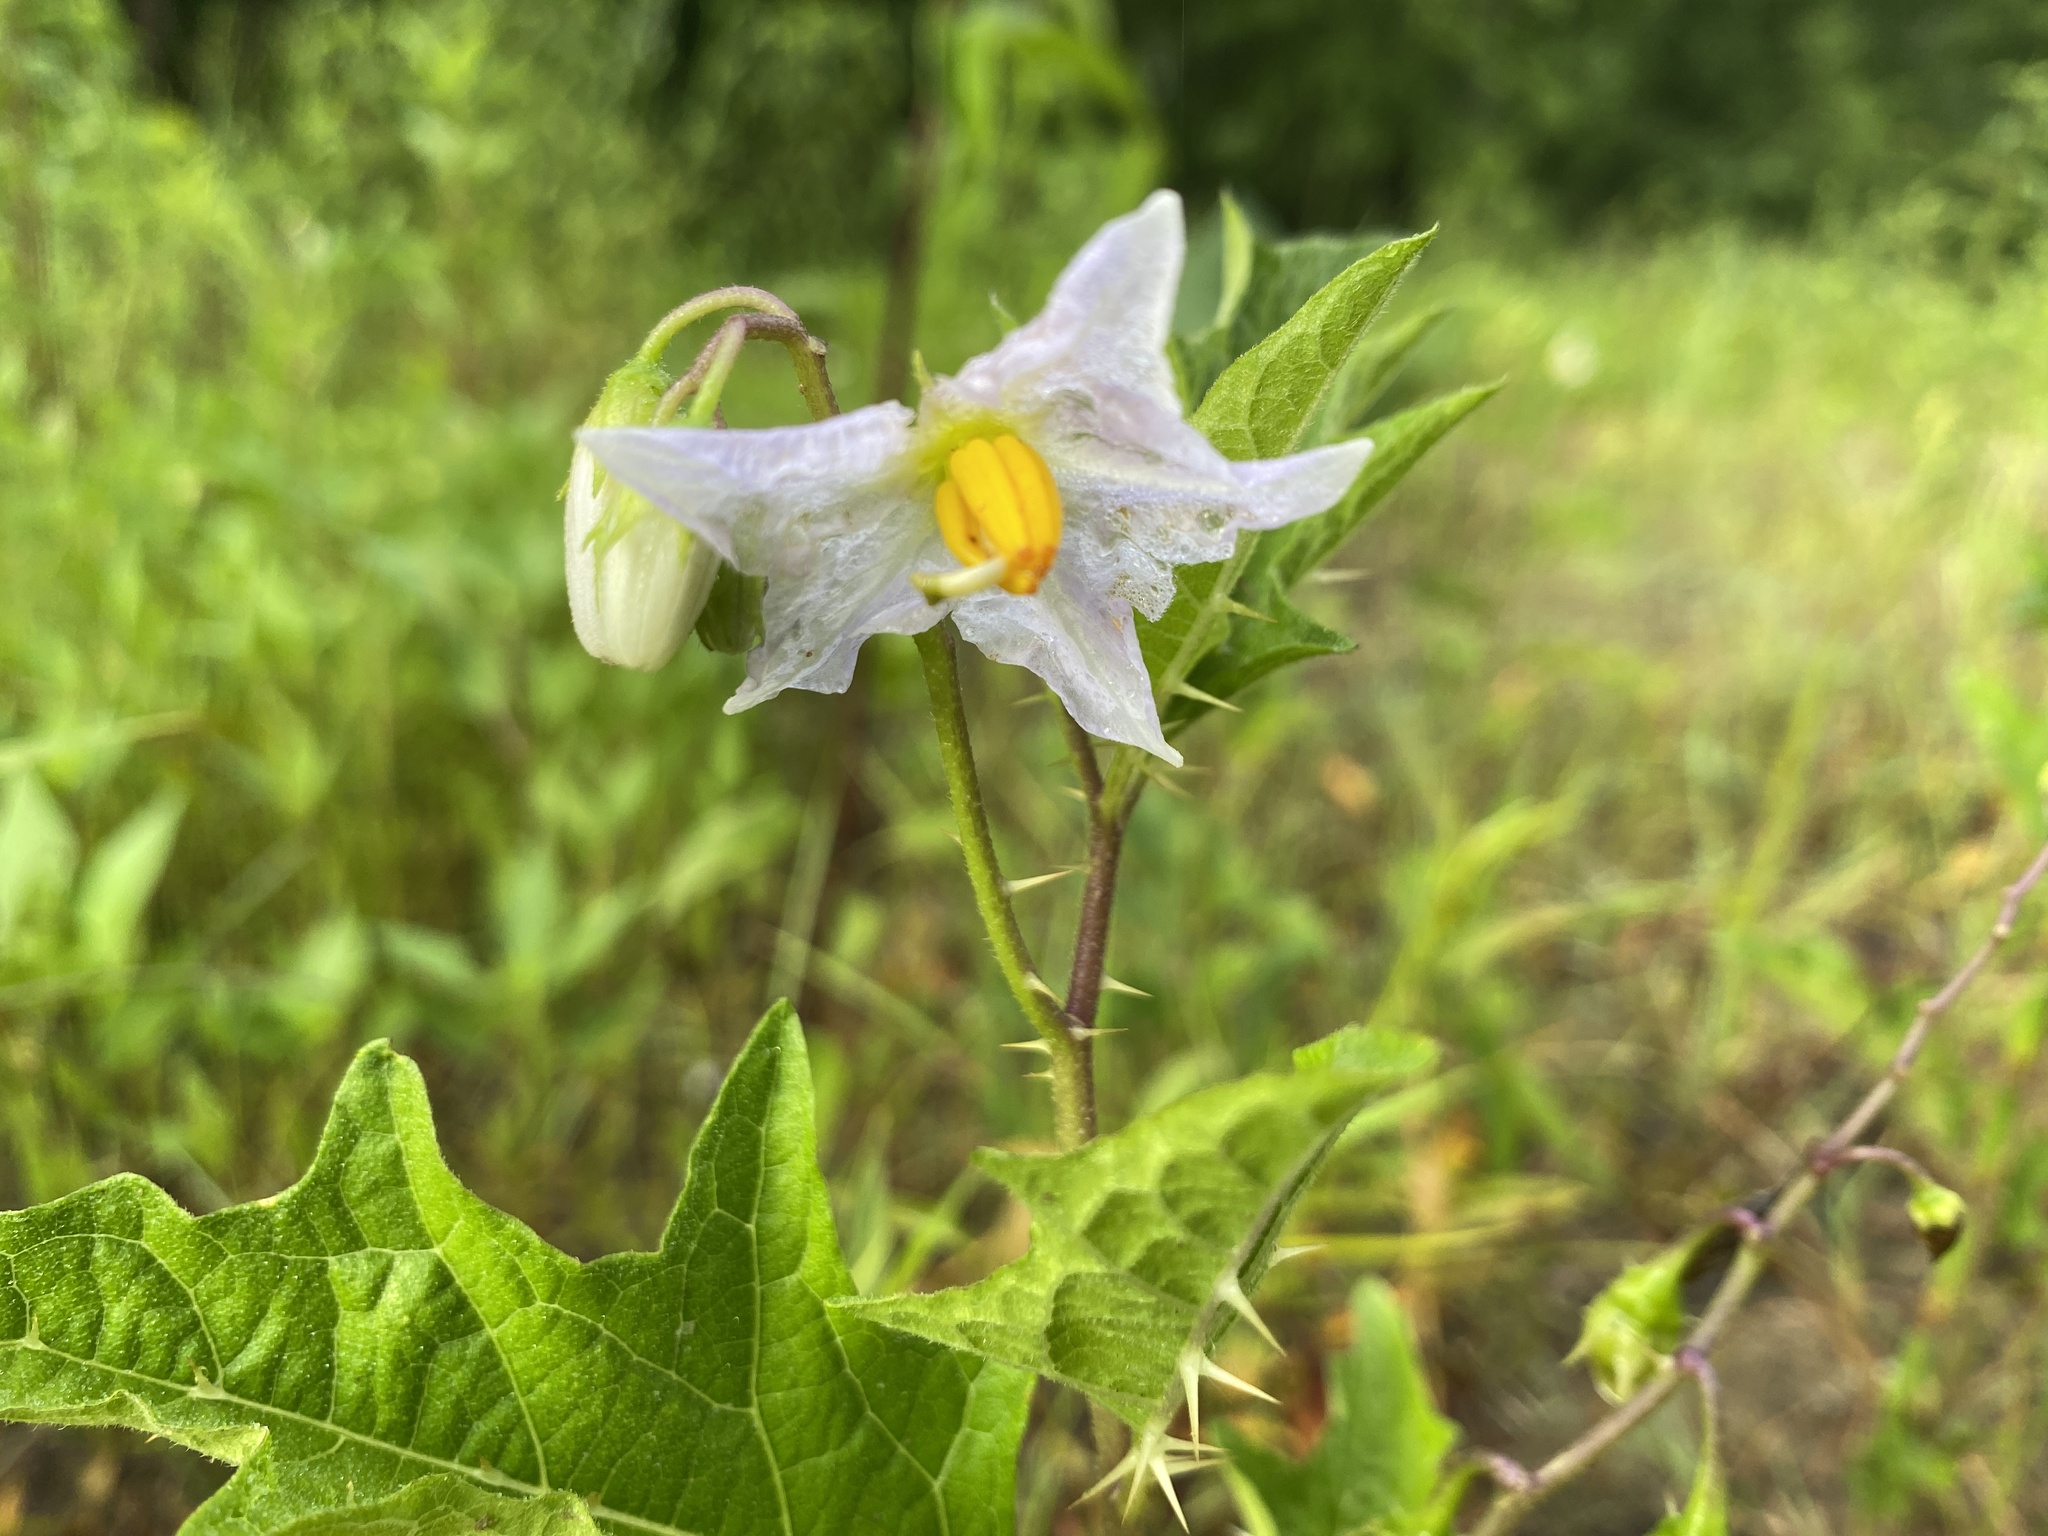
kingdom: Plantae
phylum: Tracheophyta
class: Magnoliopsida
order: Solanales
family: Solanaceae
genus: Solanum
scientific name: Solanum carolinense
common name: Horse-nettle
